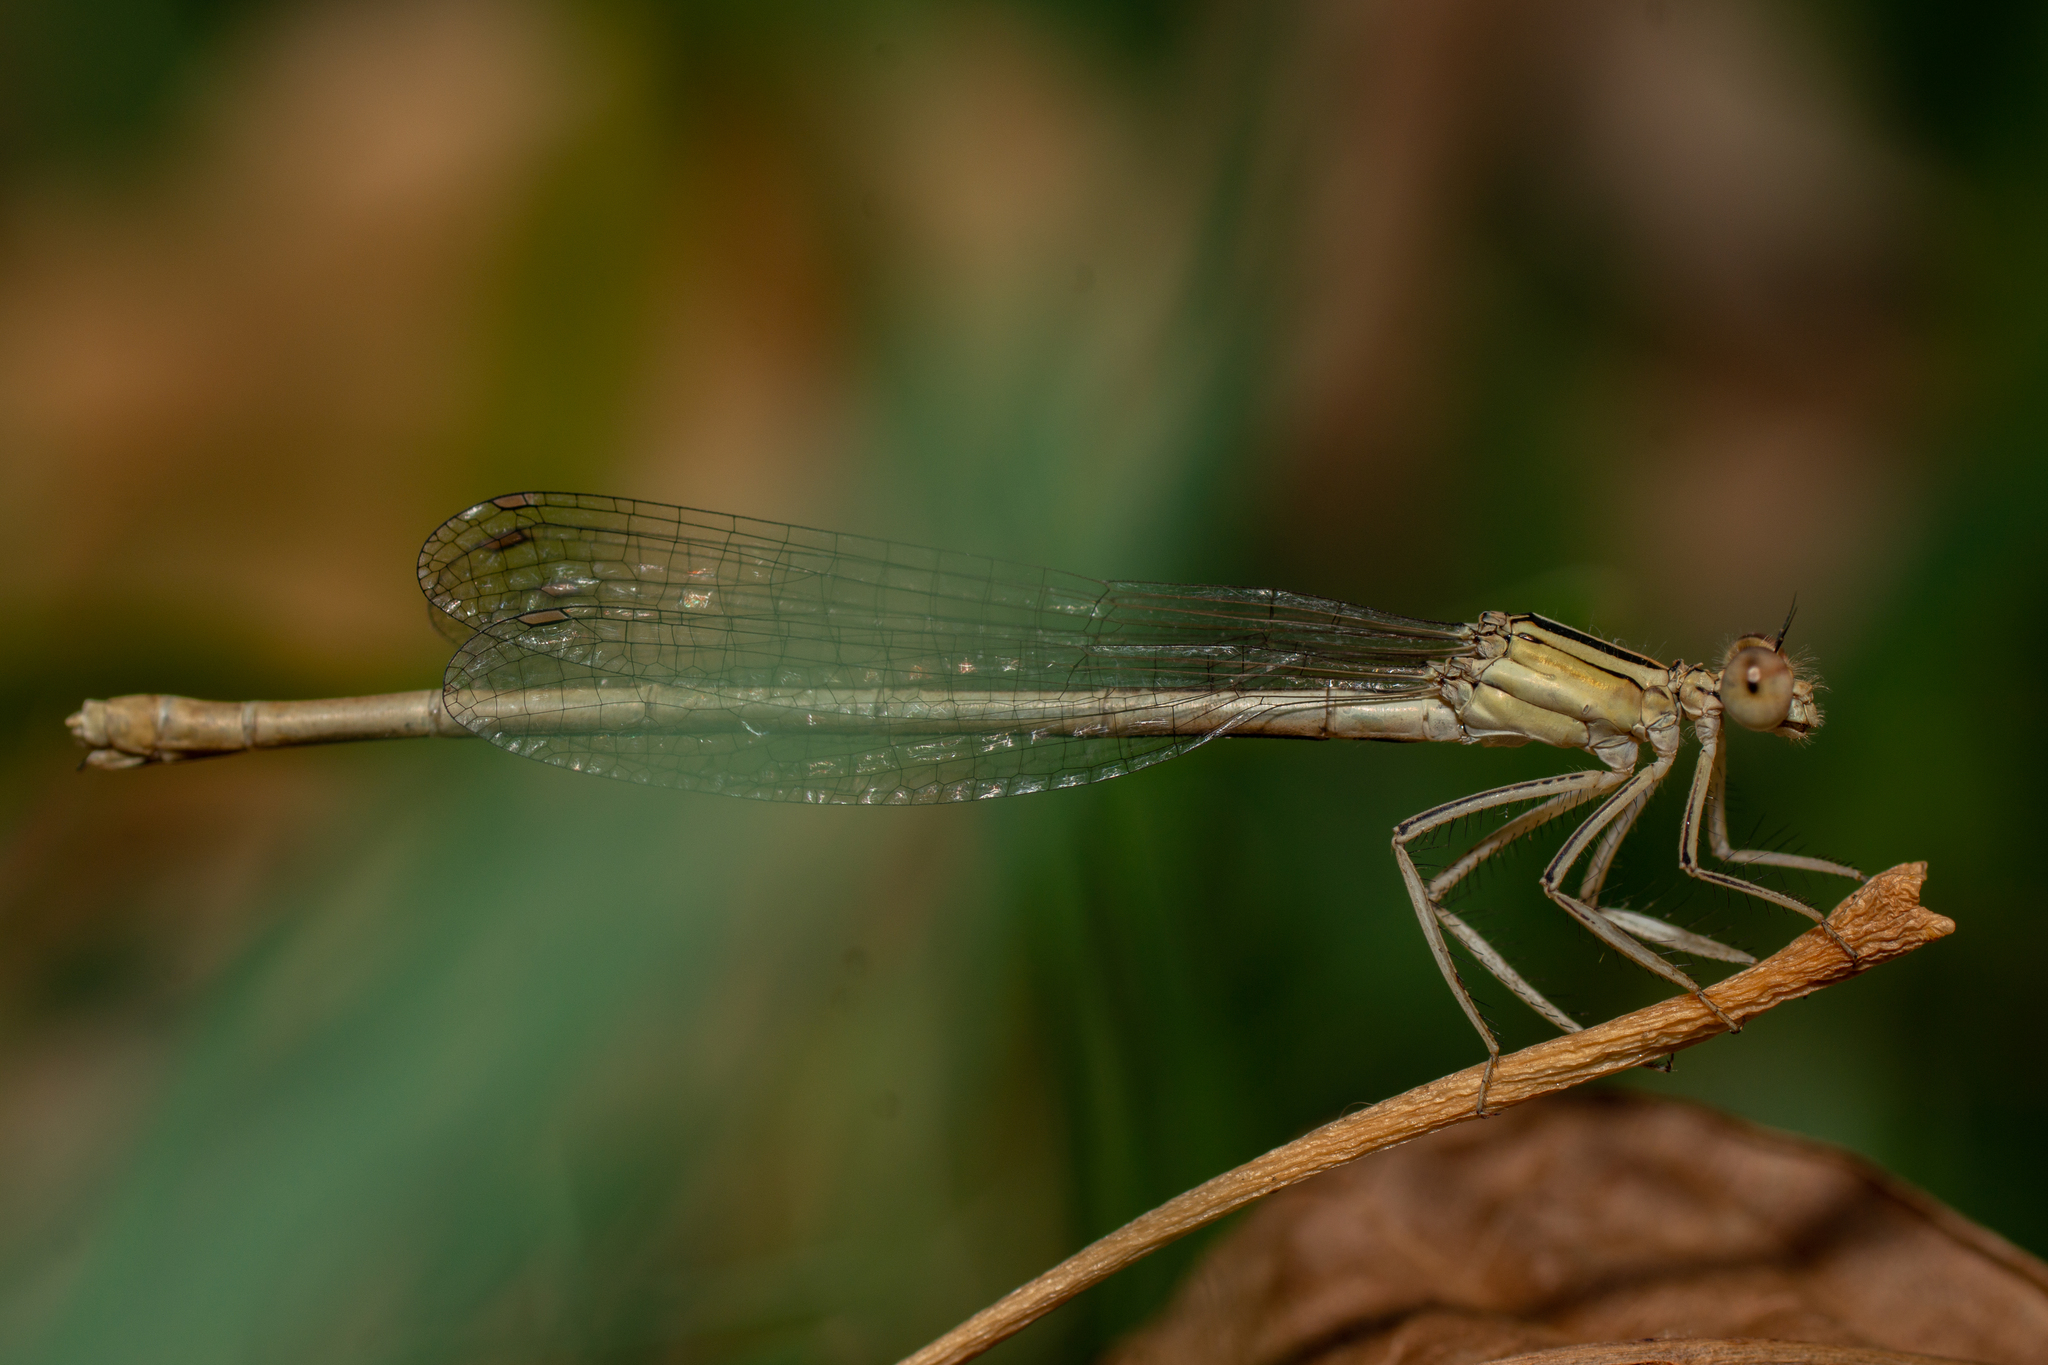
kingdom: Animalia
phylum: Arthropoda
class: Insecta
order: Odonata
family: Platycnemididae
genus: Platycnemis
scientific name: Platycnemis latipes
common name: White featherleg
